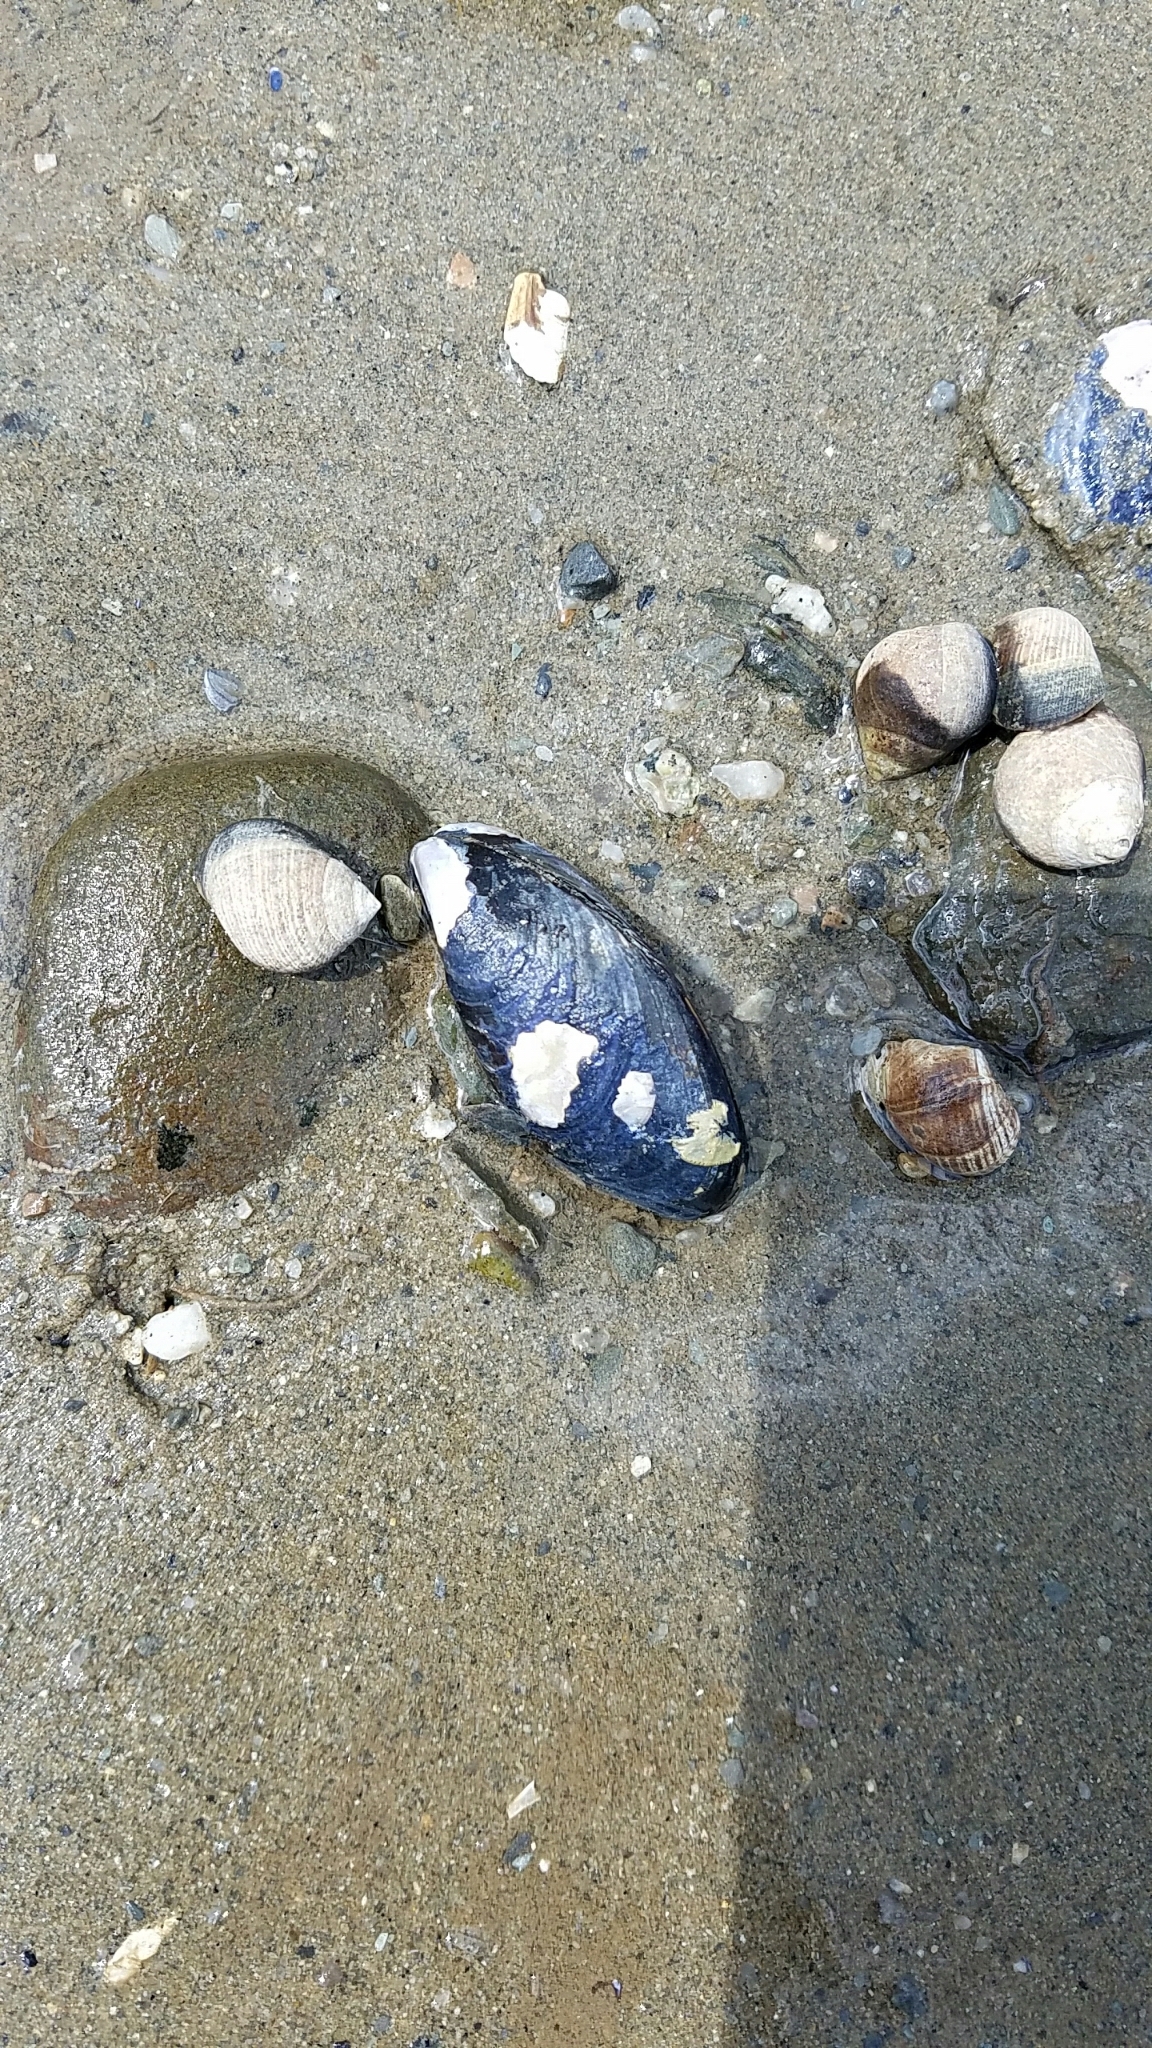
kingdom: Animalia
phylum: Mollusca
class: Bivalvia
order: Mytilida
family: Mytilidae
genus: Mytilus
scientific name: Mytilus edulis
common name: Blue mussel
